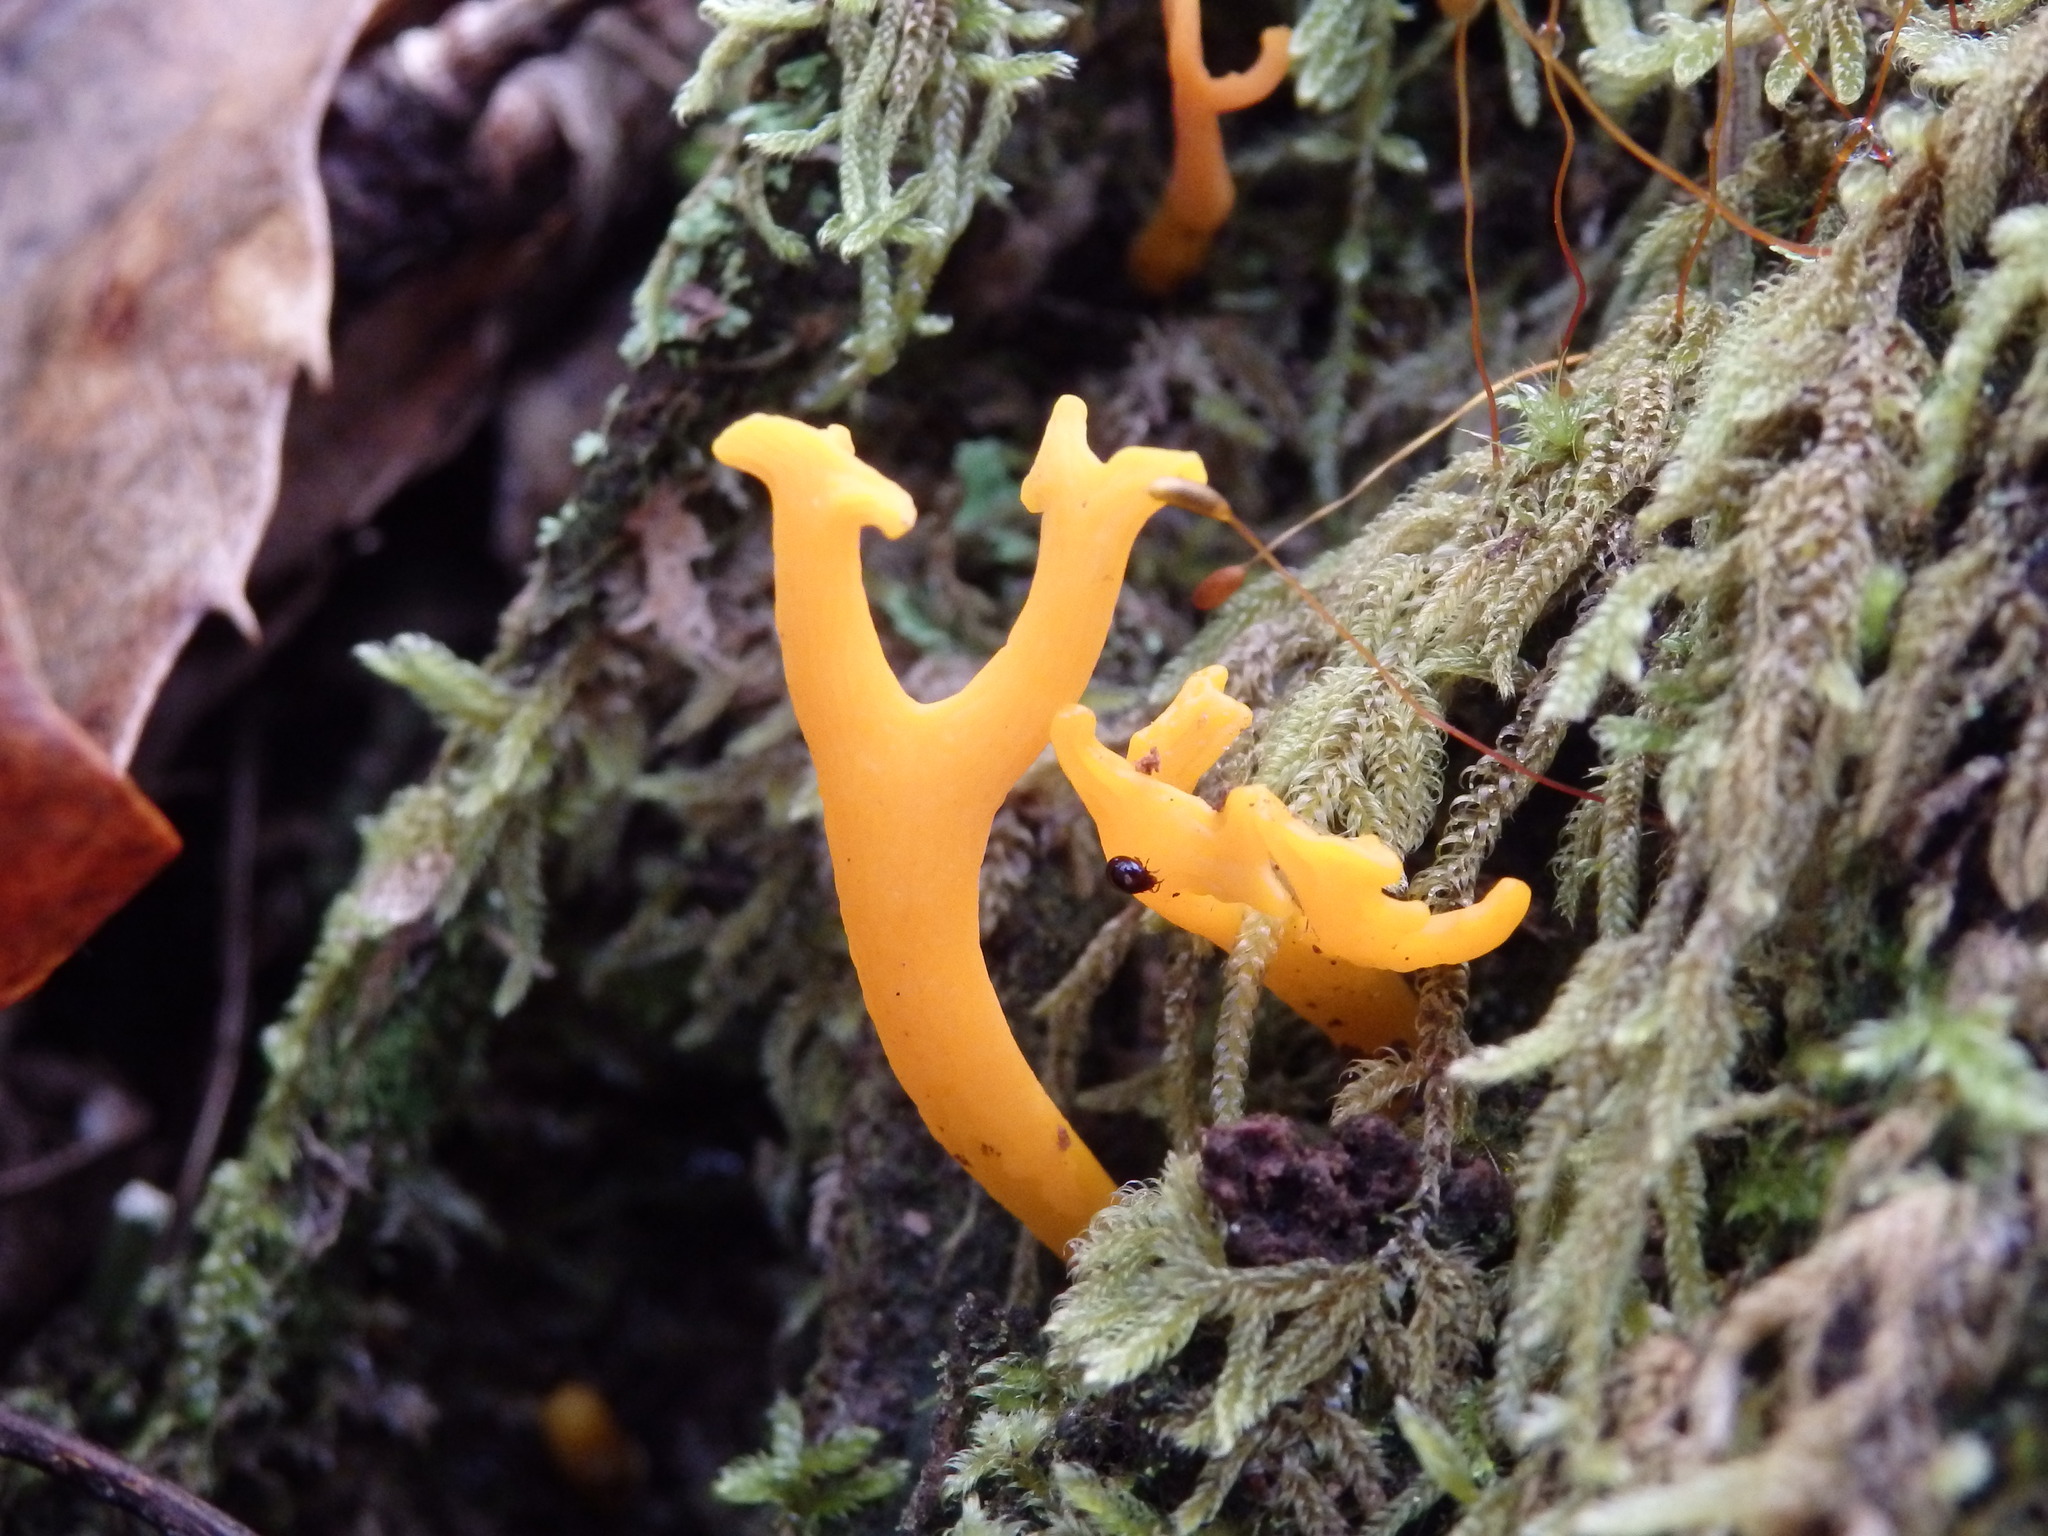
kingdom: Fungi
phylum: Basidiomycota
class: Dacrymycetes
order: Dacrymycetales
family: Dacrymycetaceae
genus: Calocera
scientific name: Calocera viscosa
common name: Yellow stagshorn
